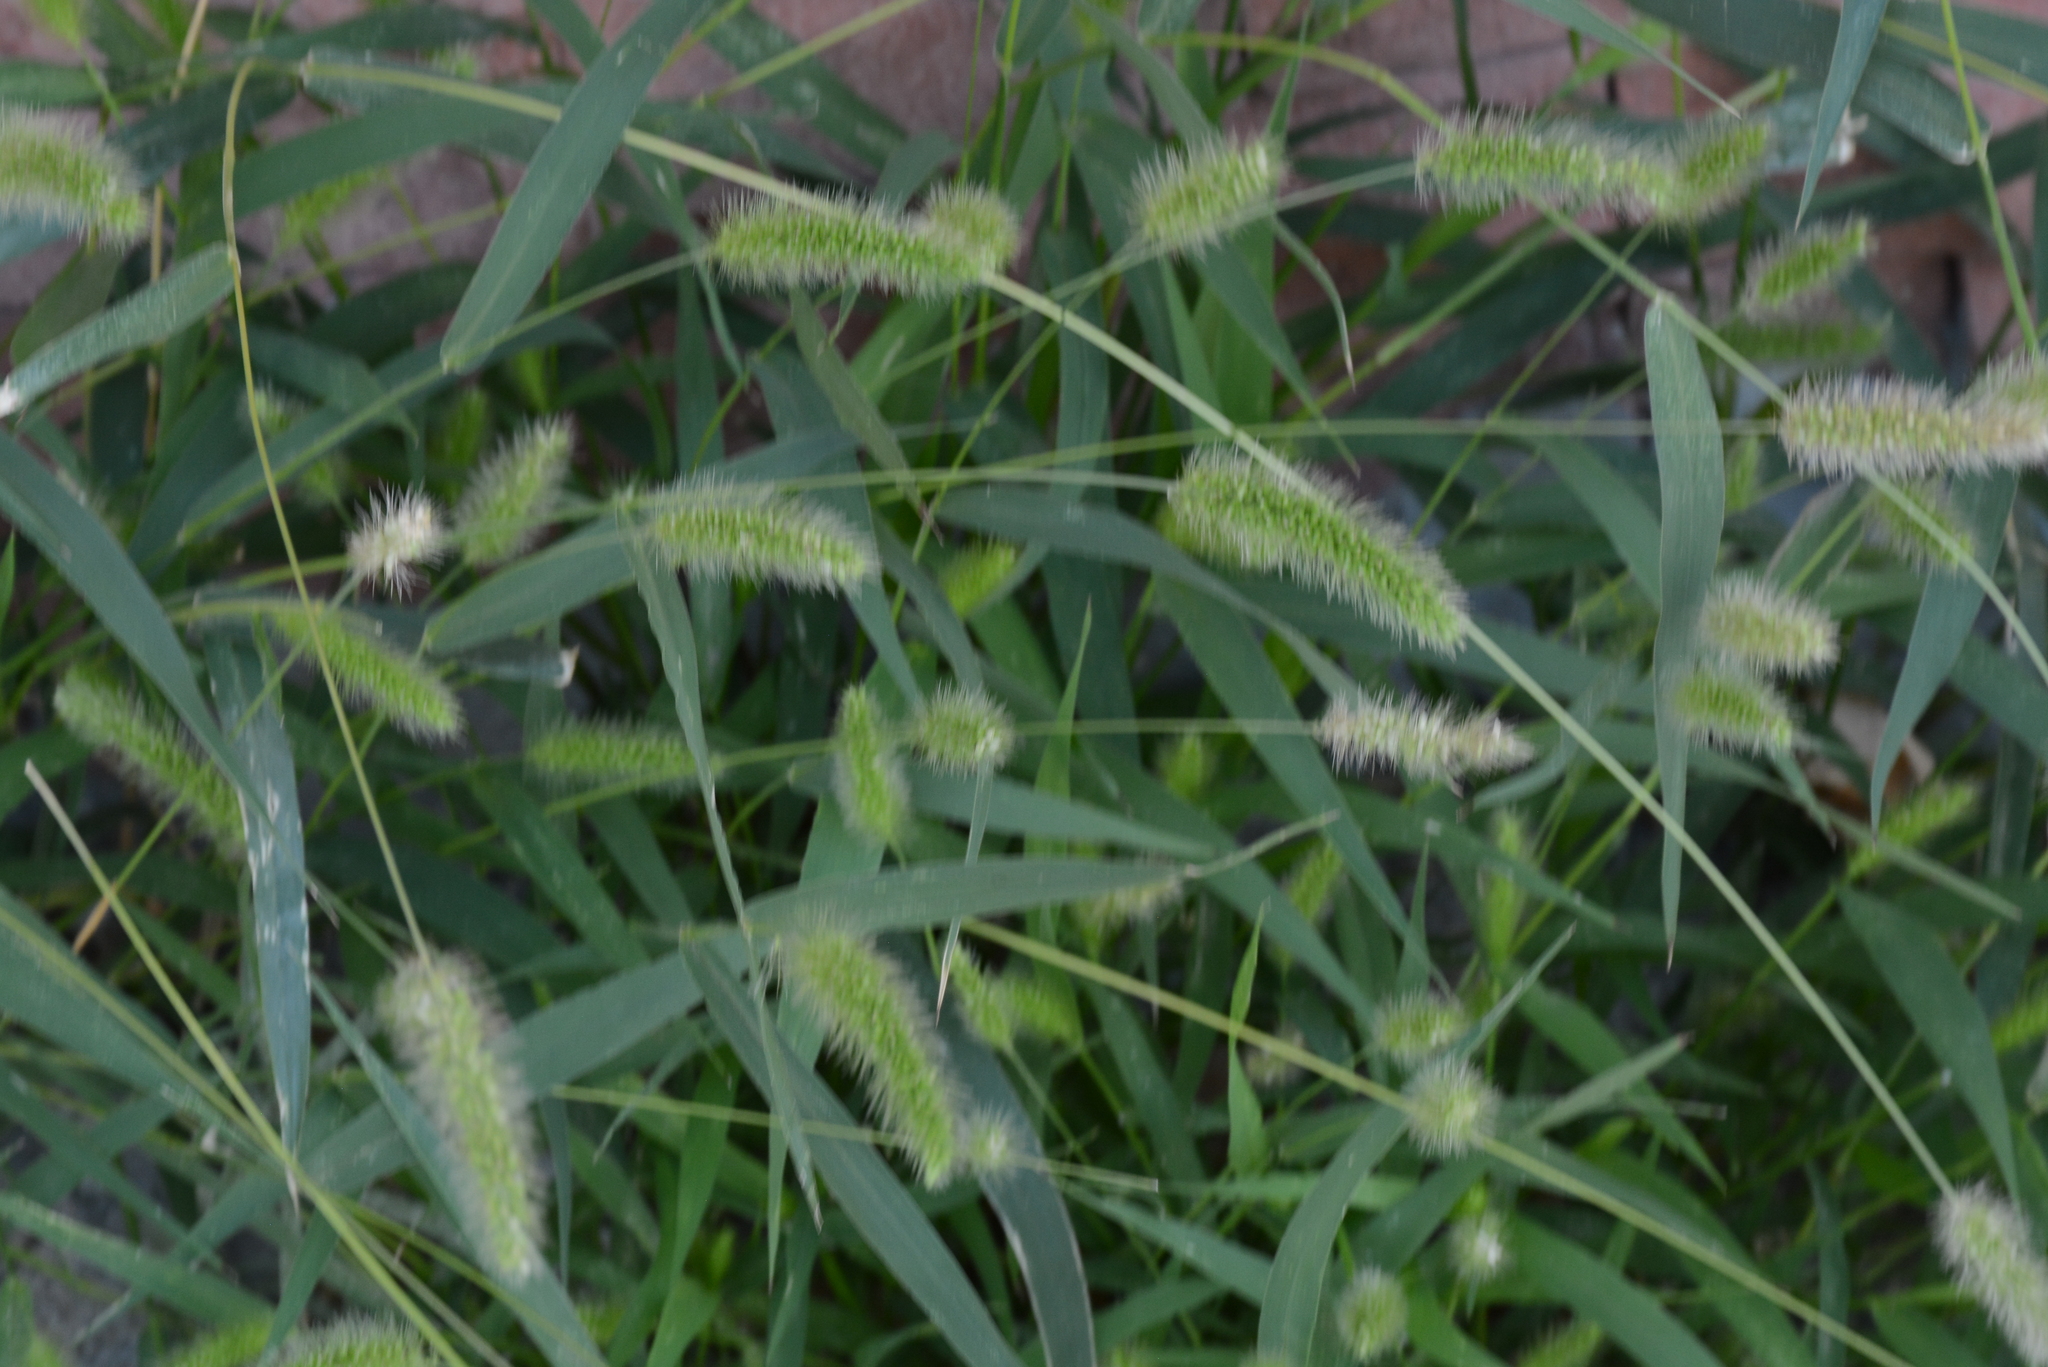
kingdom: Plantae
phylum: Tracheophyta
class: Liliopsida
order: Poales
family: Poaceae
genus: Setaria
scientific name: Setaria viridis
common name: Green bristlegrass
